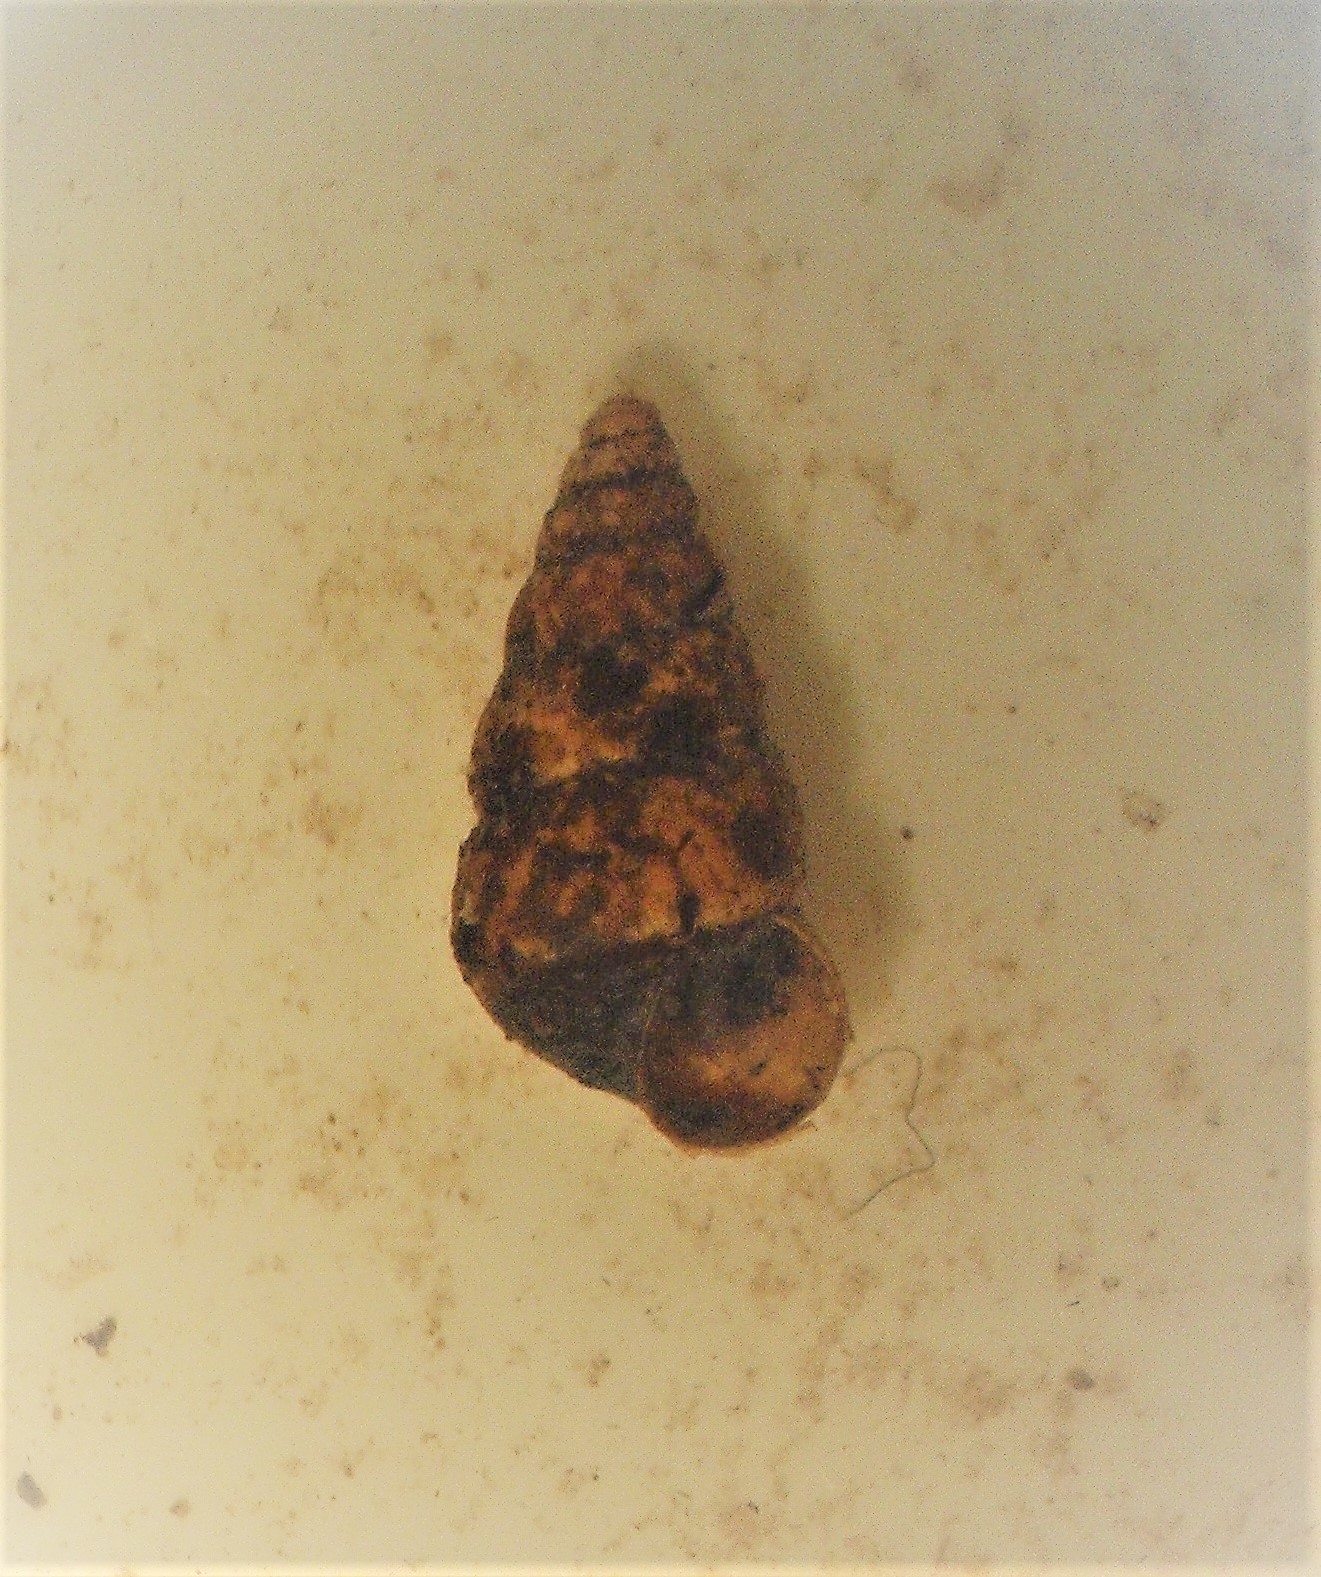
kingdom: Animalia
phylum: Mollusca
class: Gastropoda
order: Architaenioglossa
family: Pupinidae
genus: Liarea
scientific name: Liarea lepida
